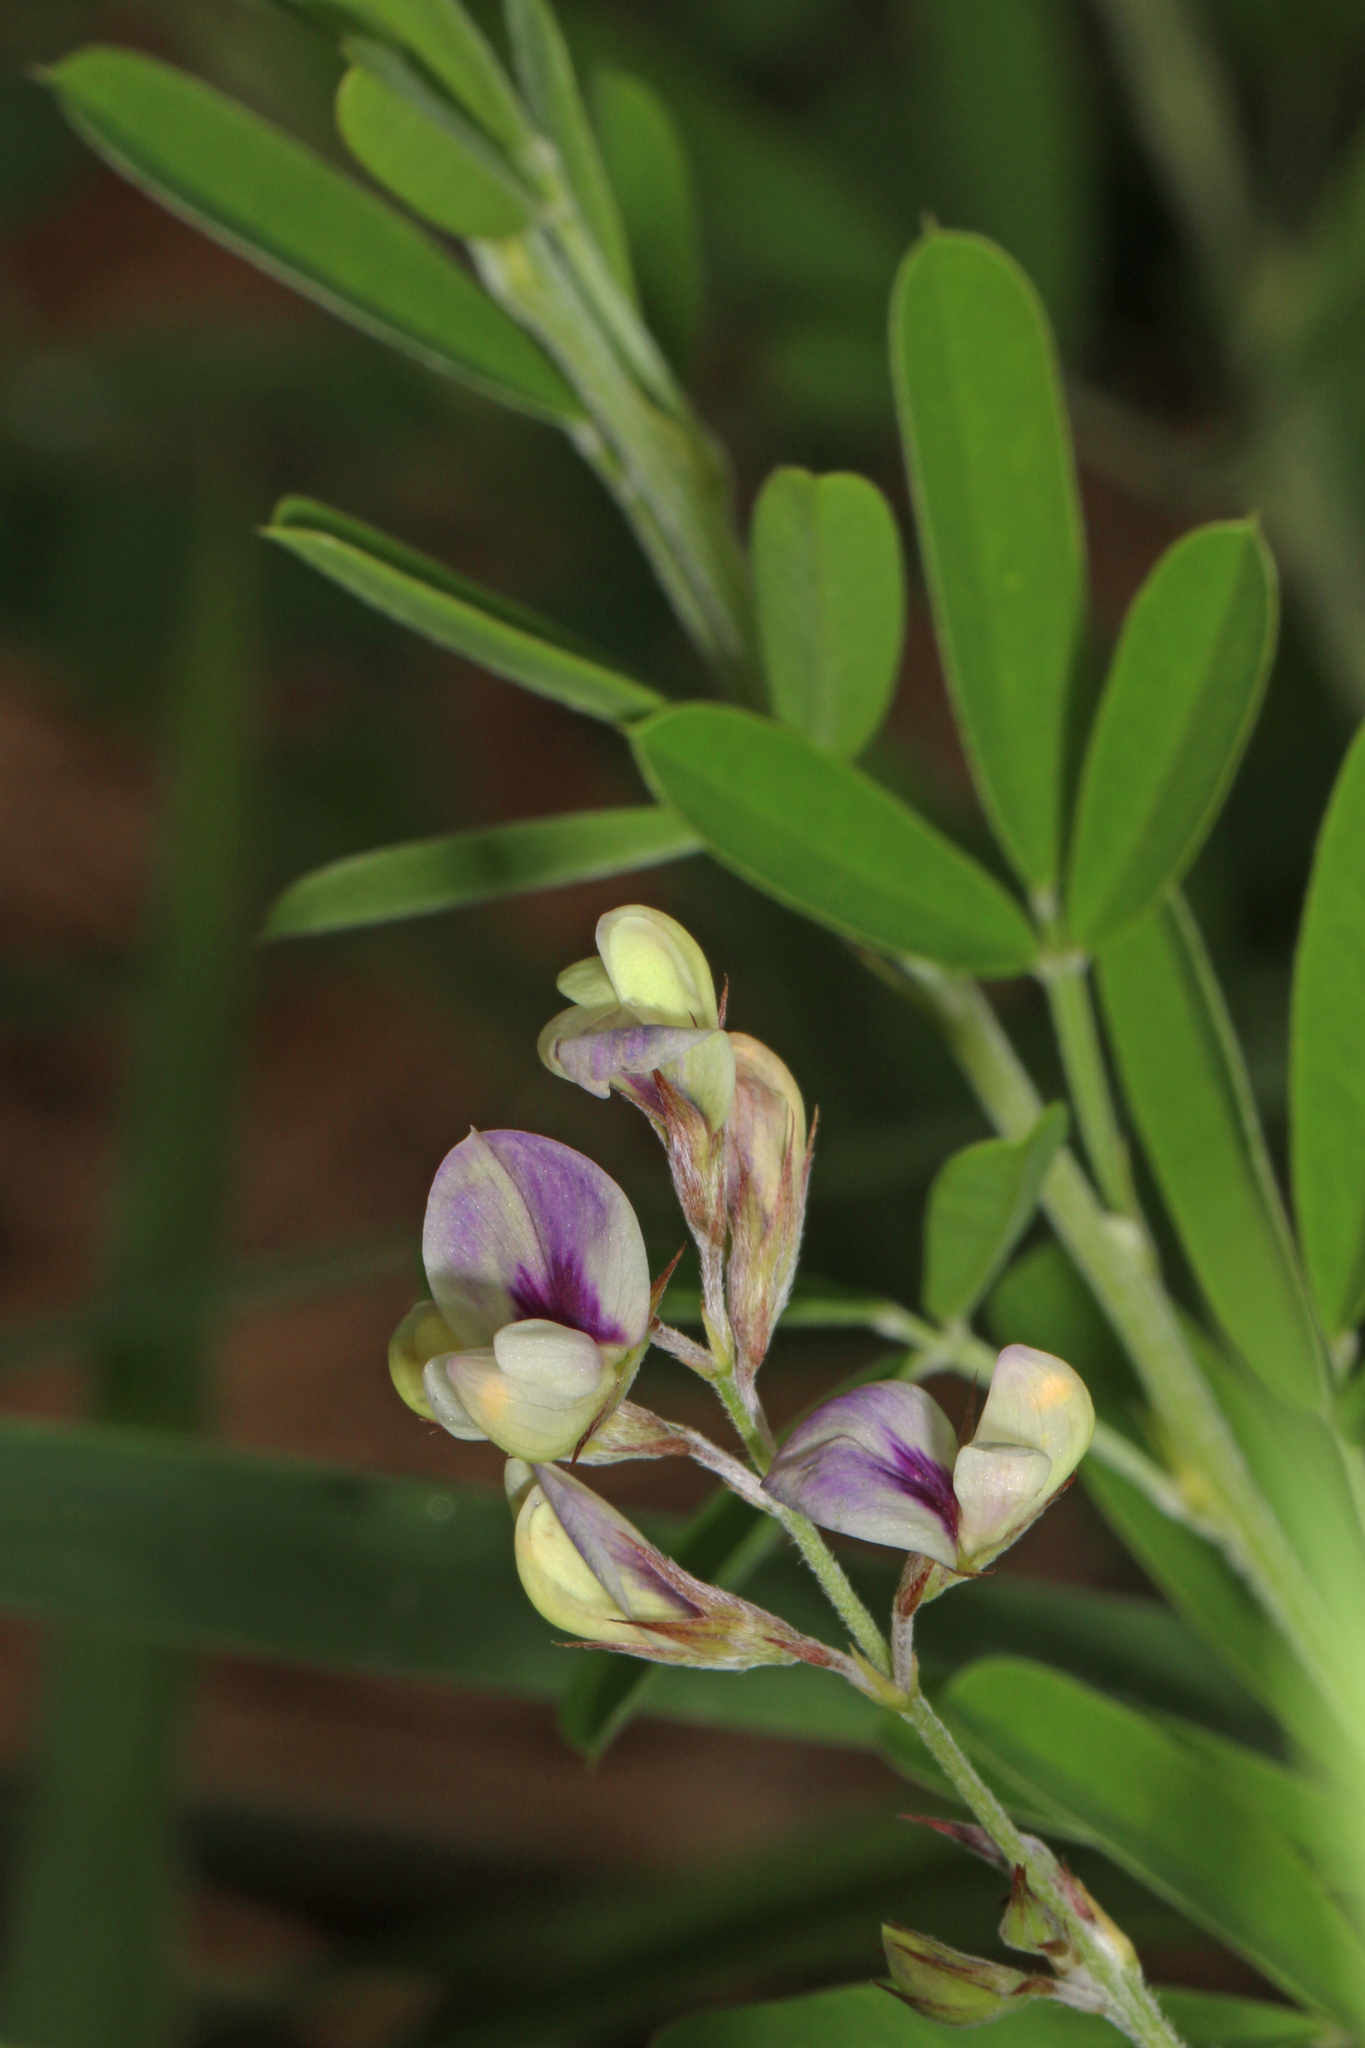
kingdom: Plantae
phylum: Tracheophyta
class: Magnoliopsida
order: Fabales
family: Fabaceae
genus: Lespedeza
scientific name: Lespedeza cuneata
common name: Chinese bush-clover
